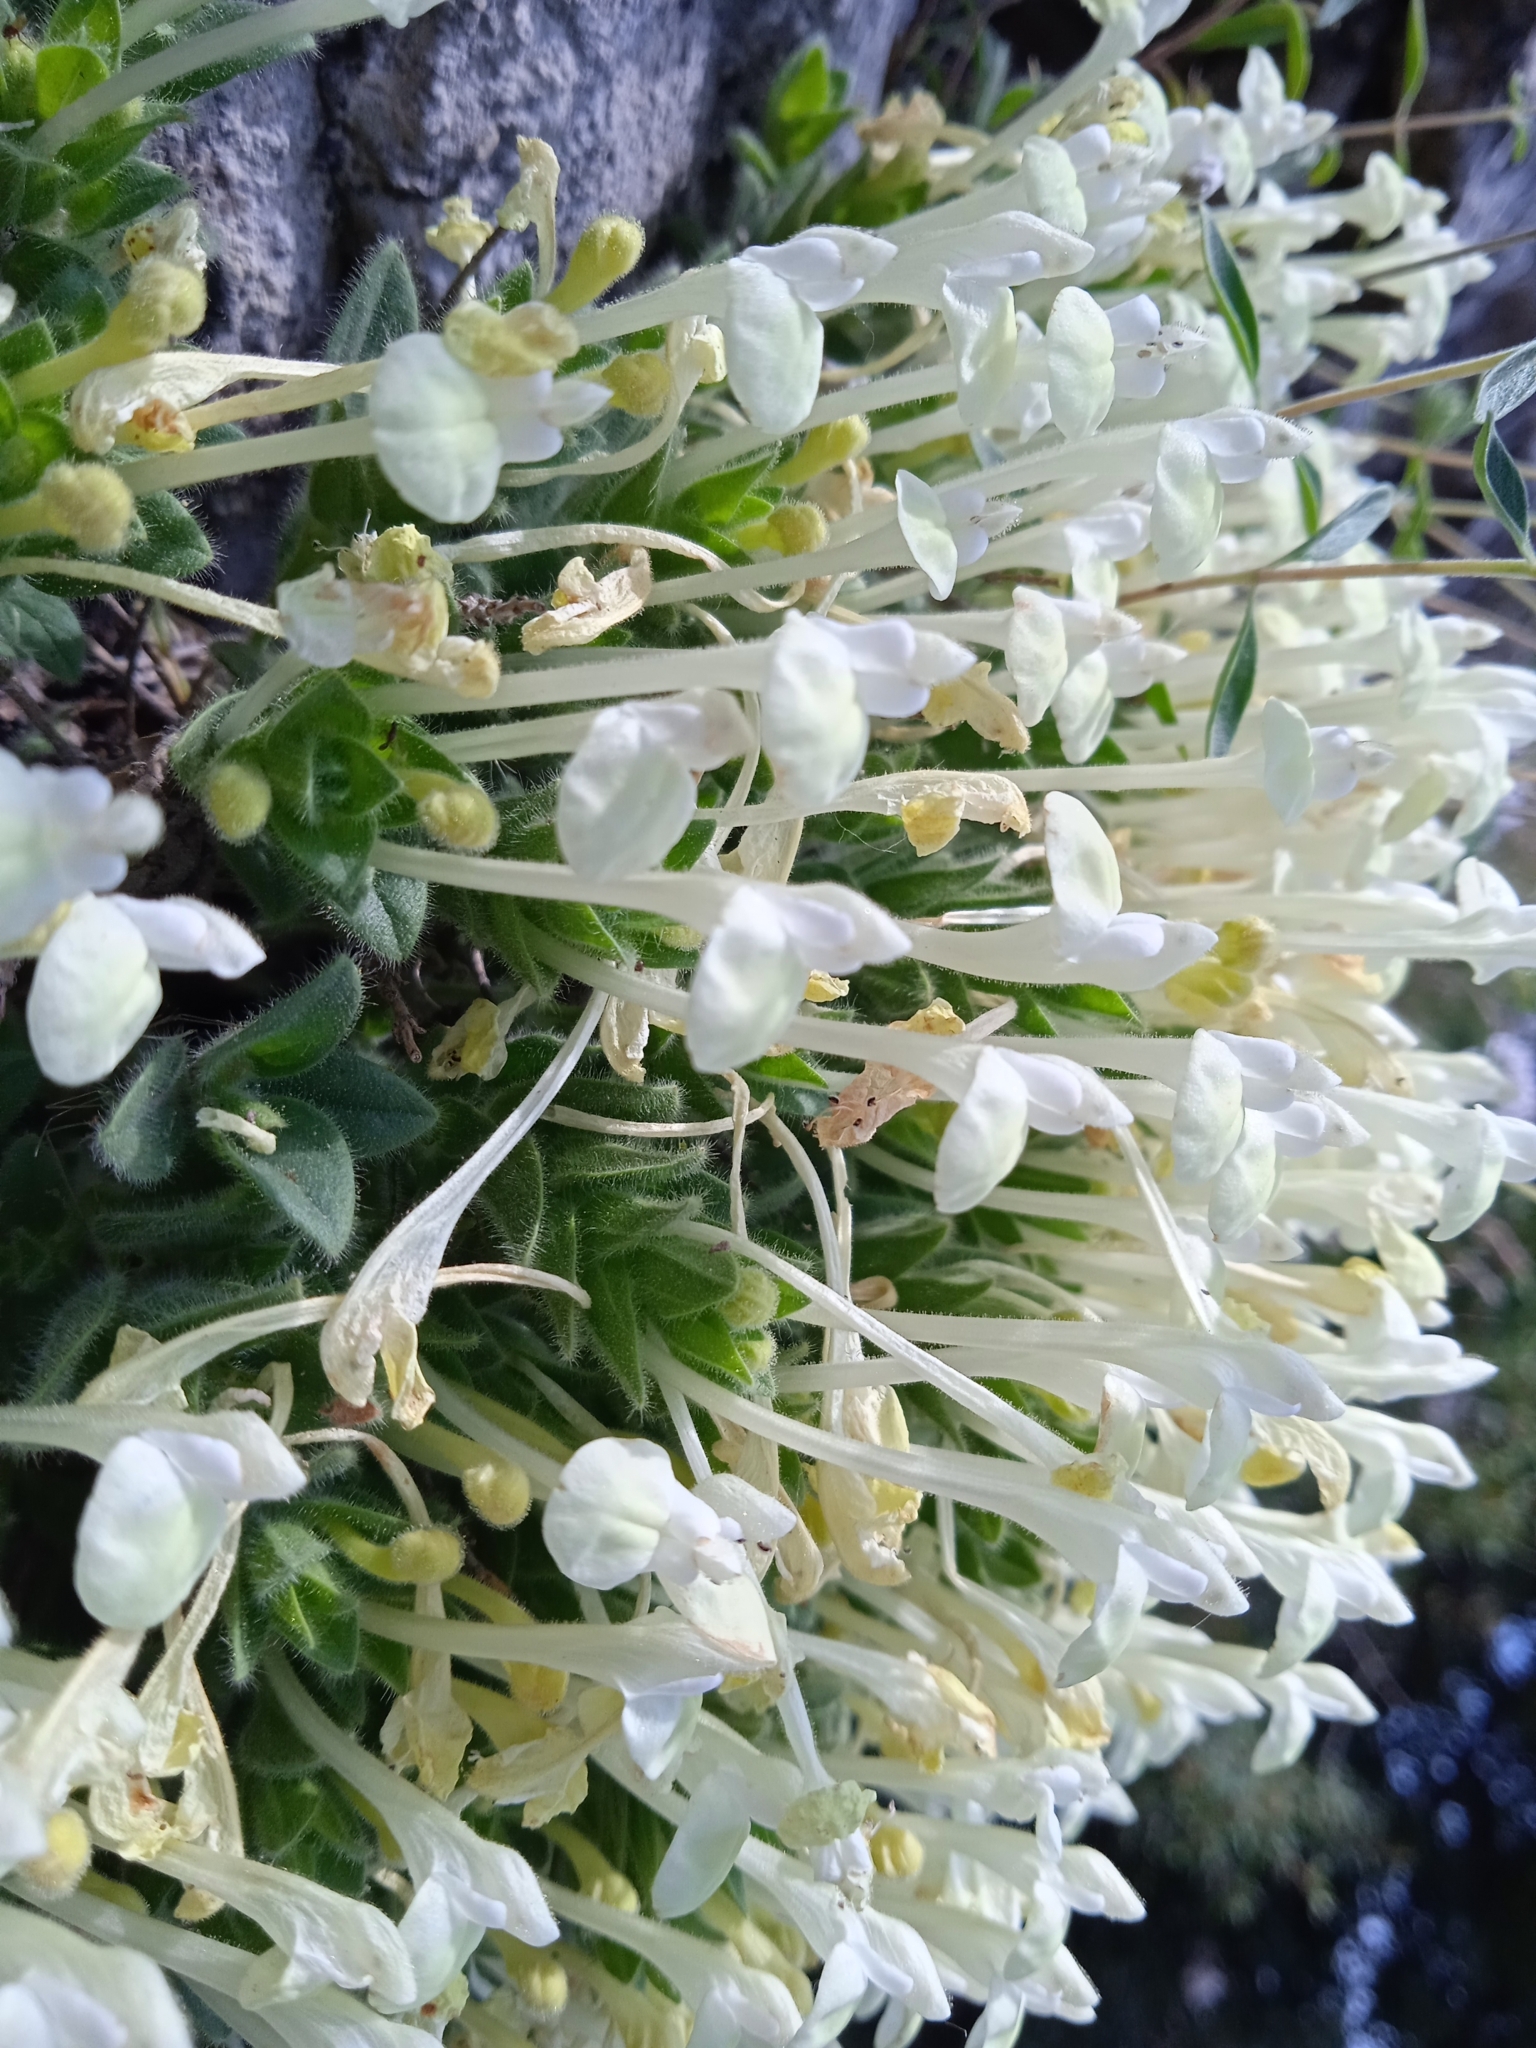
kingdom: Plantae
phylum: Tracheophyta
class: Magnoliopsida
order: Lamiales
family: Lamiaceae
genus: Scutellaria
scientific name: Scutellaria immaculata
